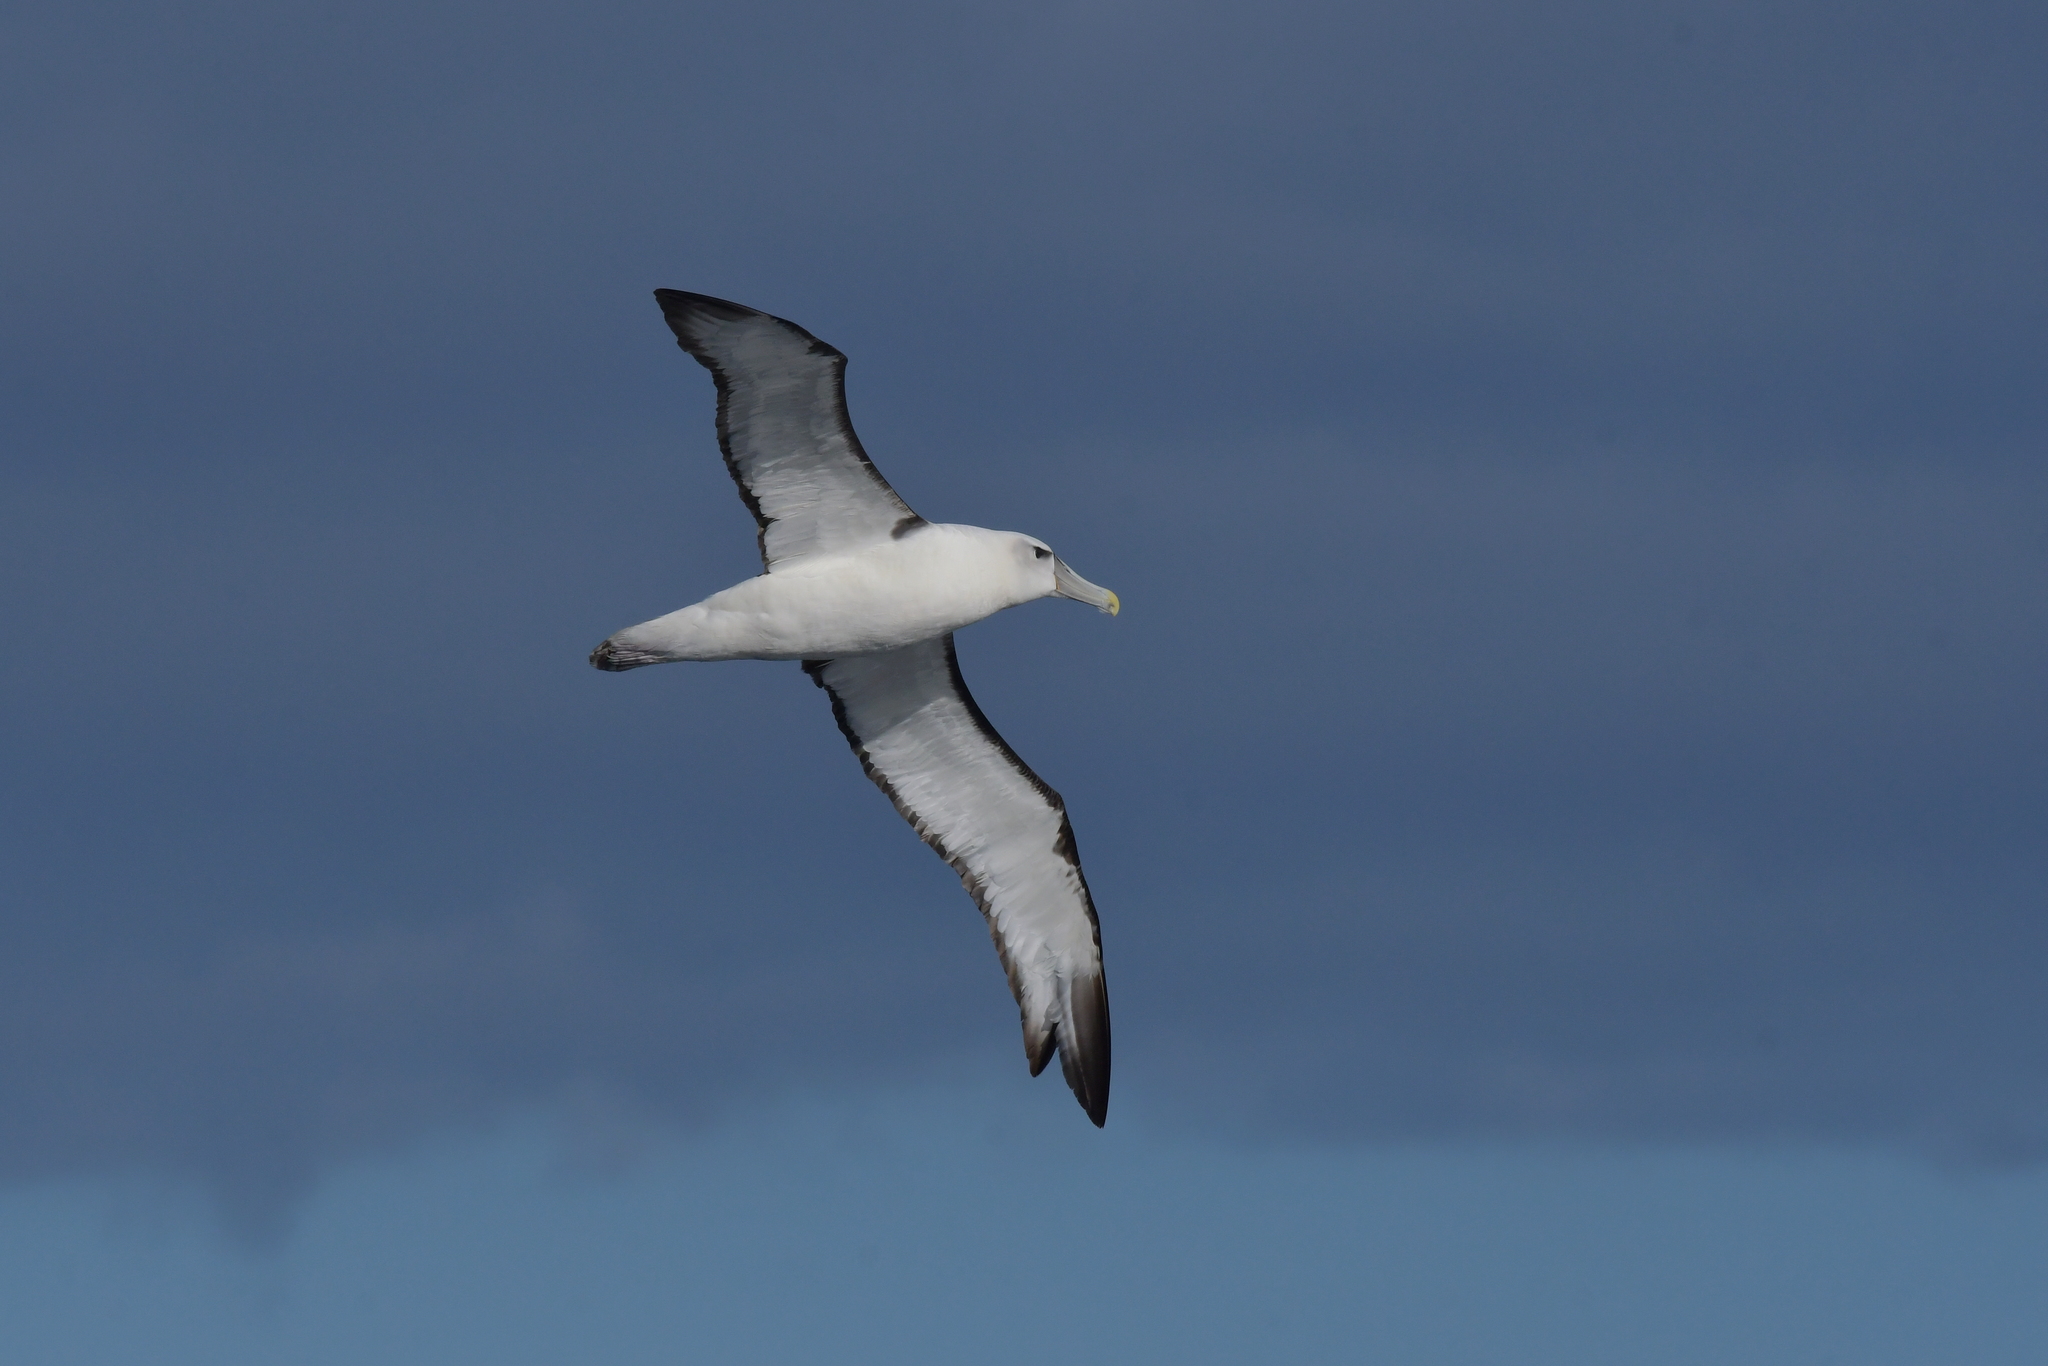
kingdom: Animalia
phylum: Chordata
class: Aves
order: Procellariiformes
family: Diomedeidae
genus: Thalassarche
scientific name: Thalassarche cauta
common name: Shy albatross
